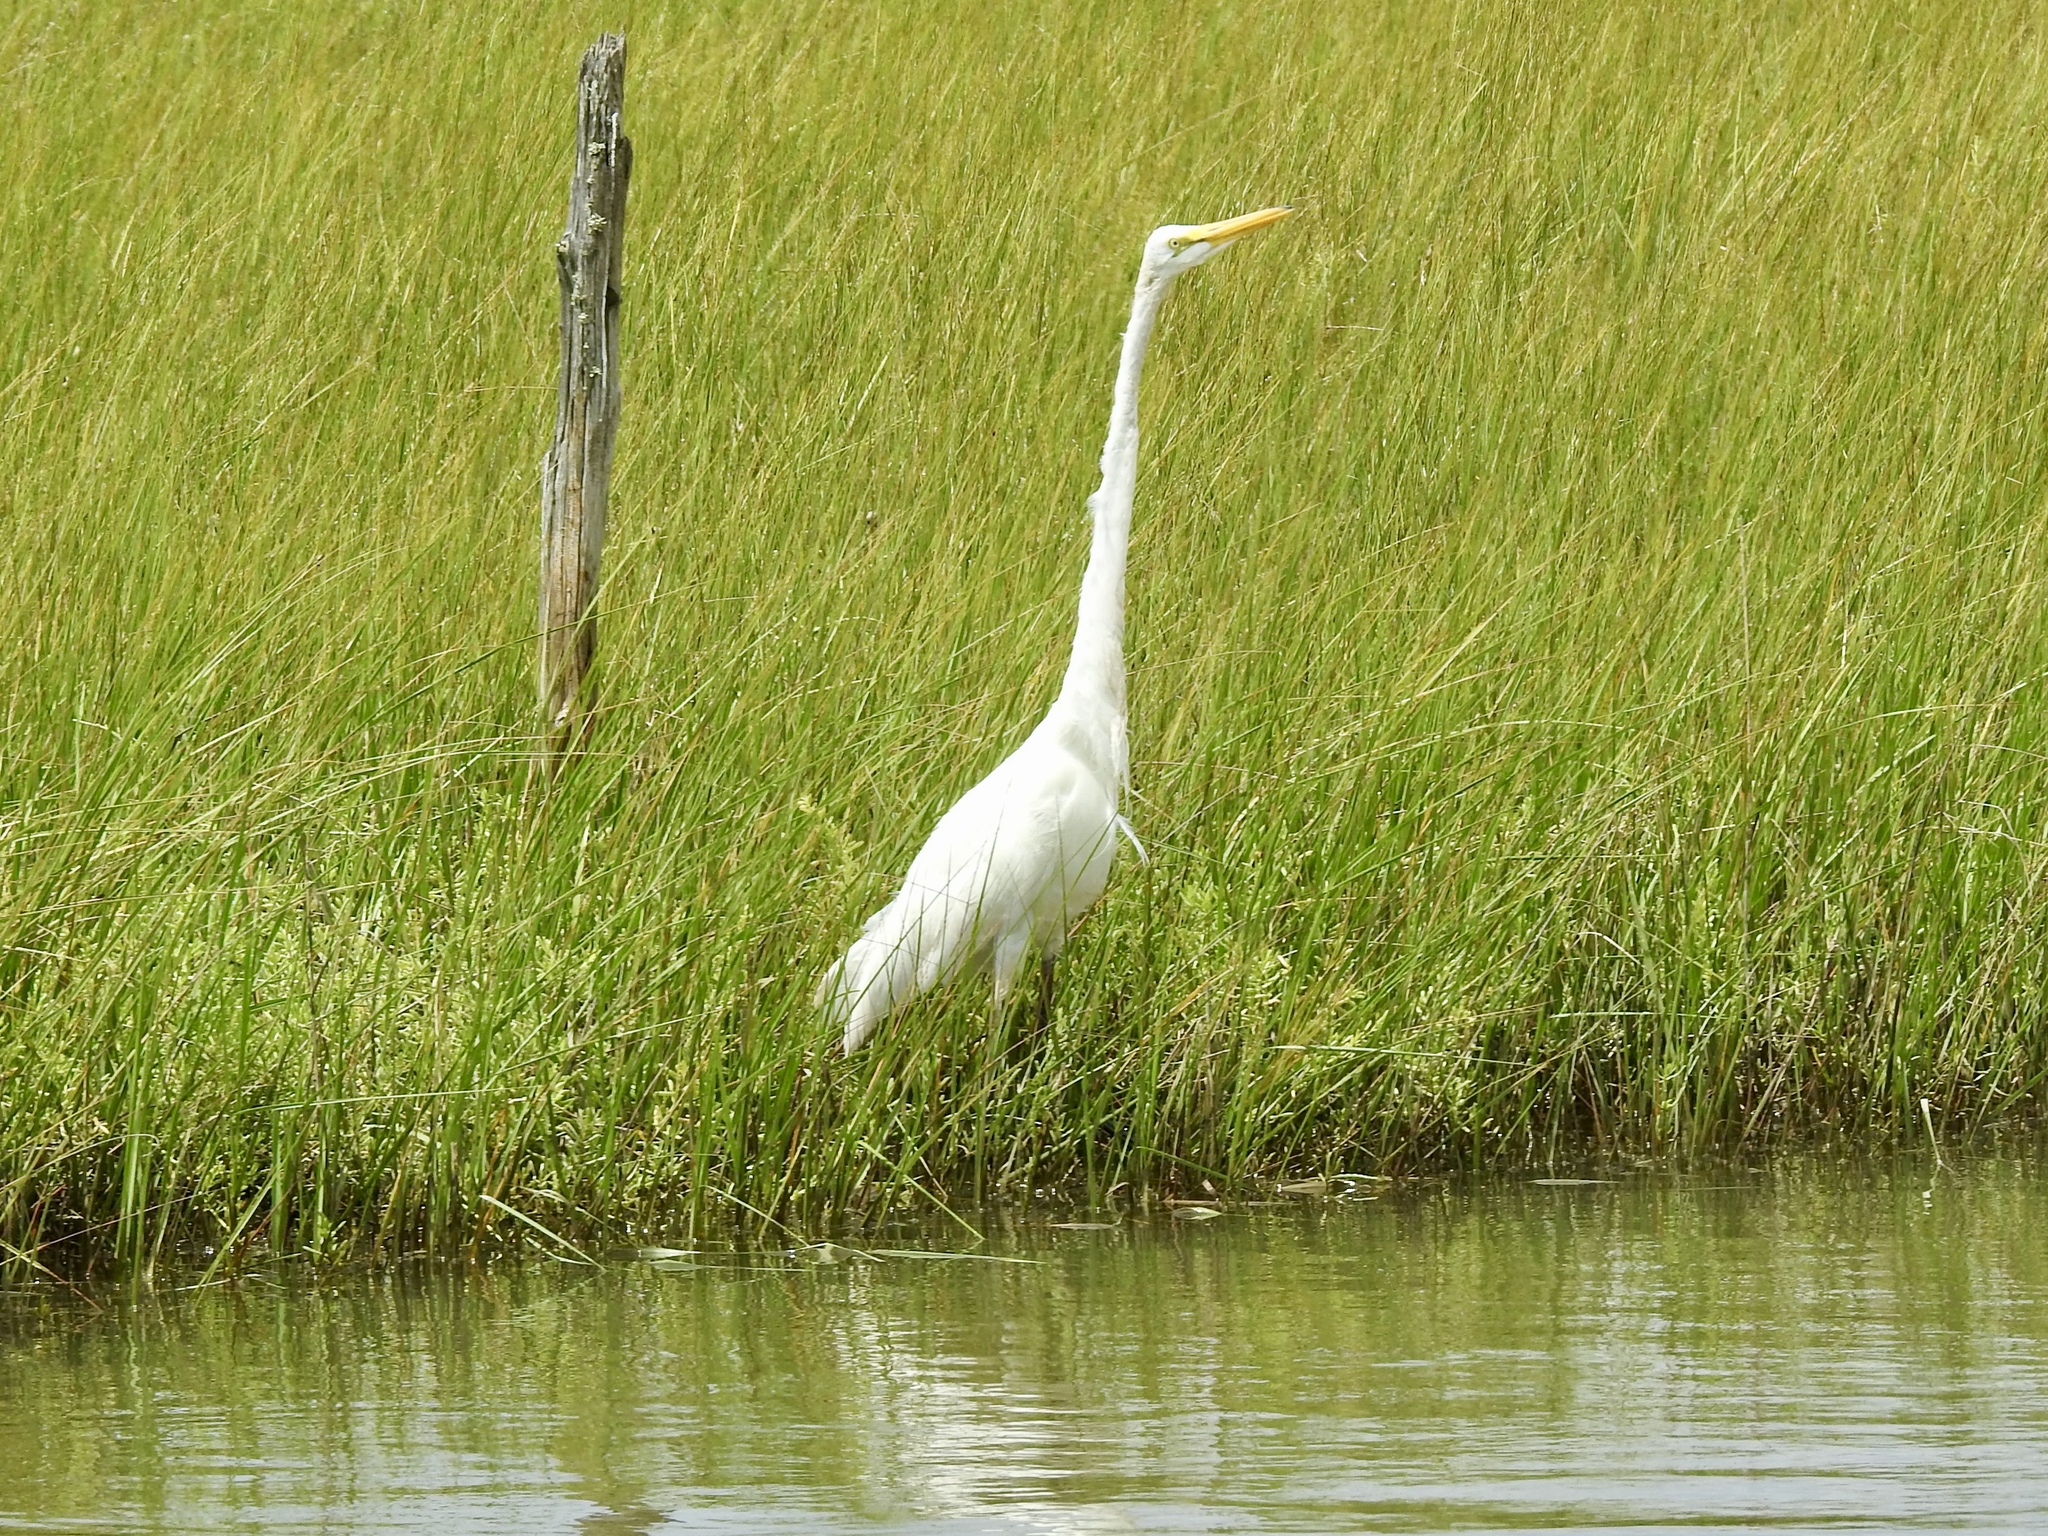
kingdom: Animalia
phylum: Chordata
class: Aves
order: Pelecaniformes
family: Ardeidae
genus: Ardea
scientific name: Ardea alba
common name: Great egret
